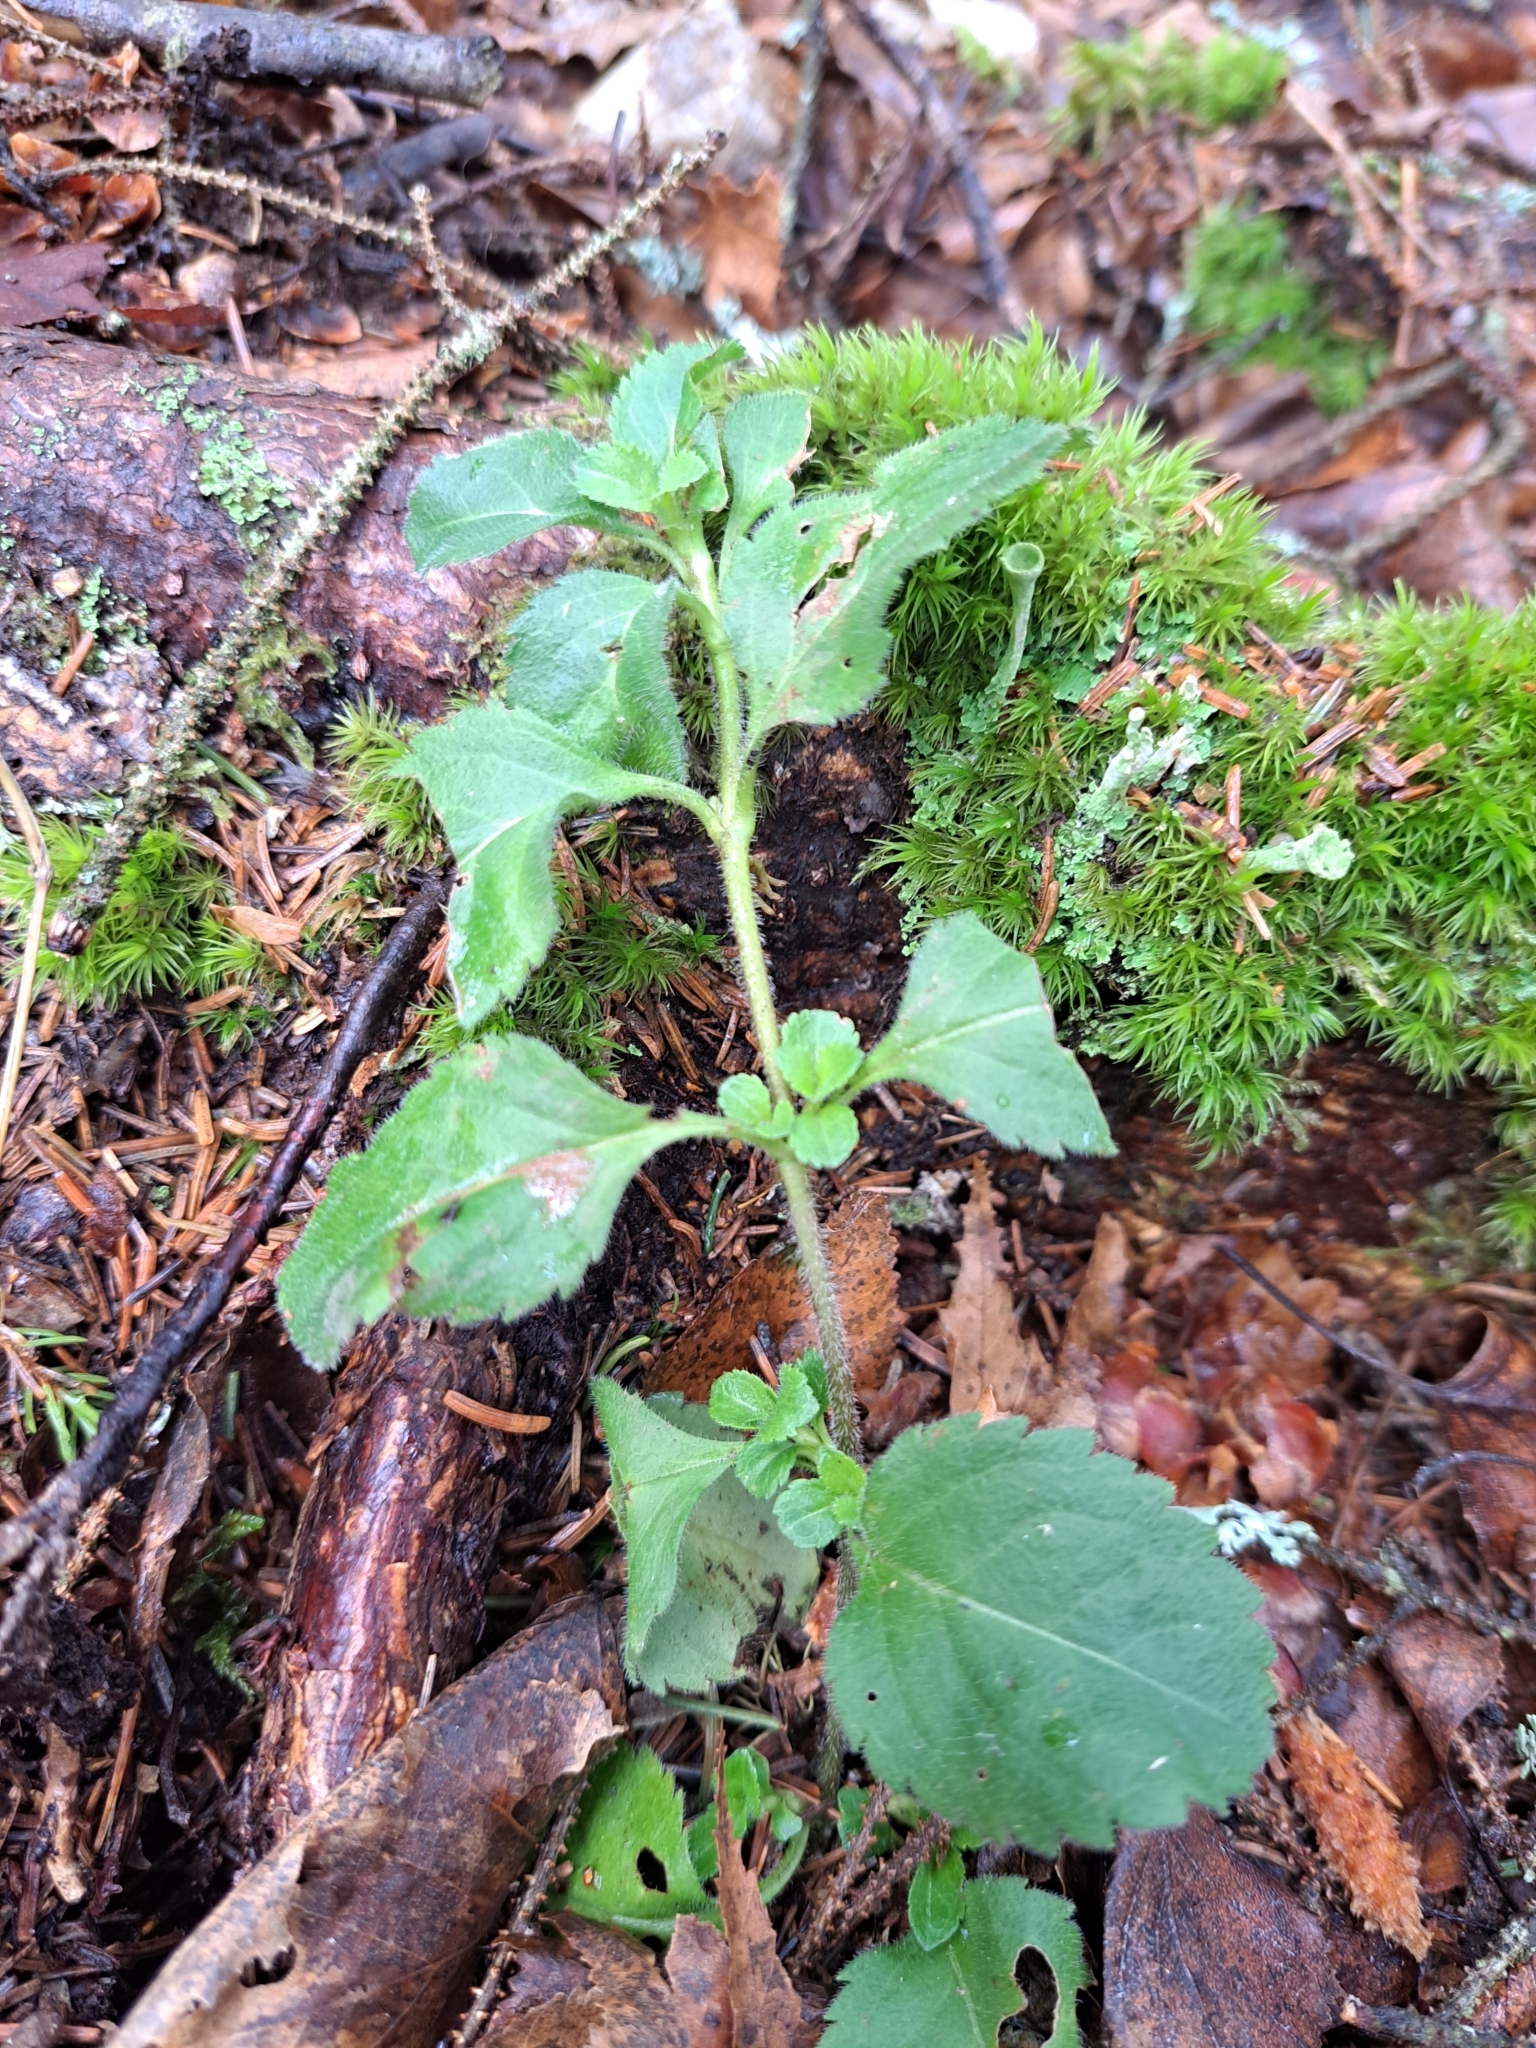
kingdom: Plantae
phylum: Tracheophyta
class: Magnoliopsida
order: Lamiales
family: Plantaginaceae
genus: Veronica
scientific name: Veronica officinalis
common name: Common speedwell
